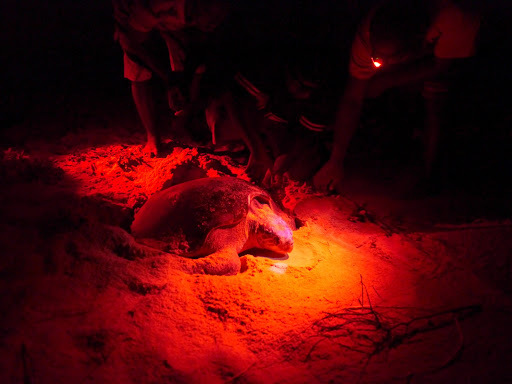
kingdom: Animalia
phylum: Chordata
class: Testudines
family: Cheloniidae
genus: Lepidochelys
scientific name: Lepidochelys olivacea
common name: Olive ridley
